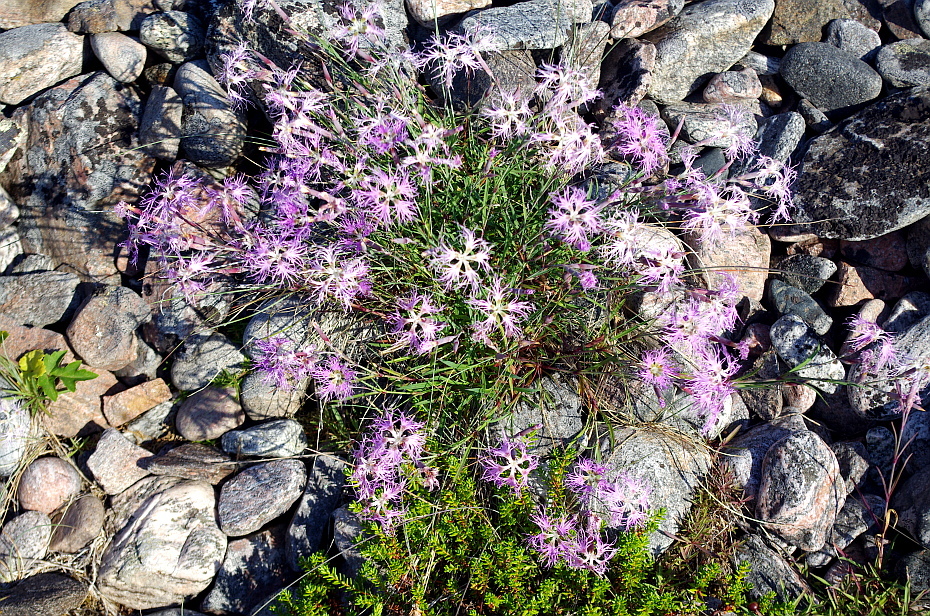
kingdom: Plantae
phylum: Tracheophyta
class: Magnoliopsida
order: Caryophyllales
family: Caryophyllaceae
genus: Dianthus
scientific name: Dianthus superbus
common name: Fringed pink
